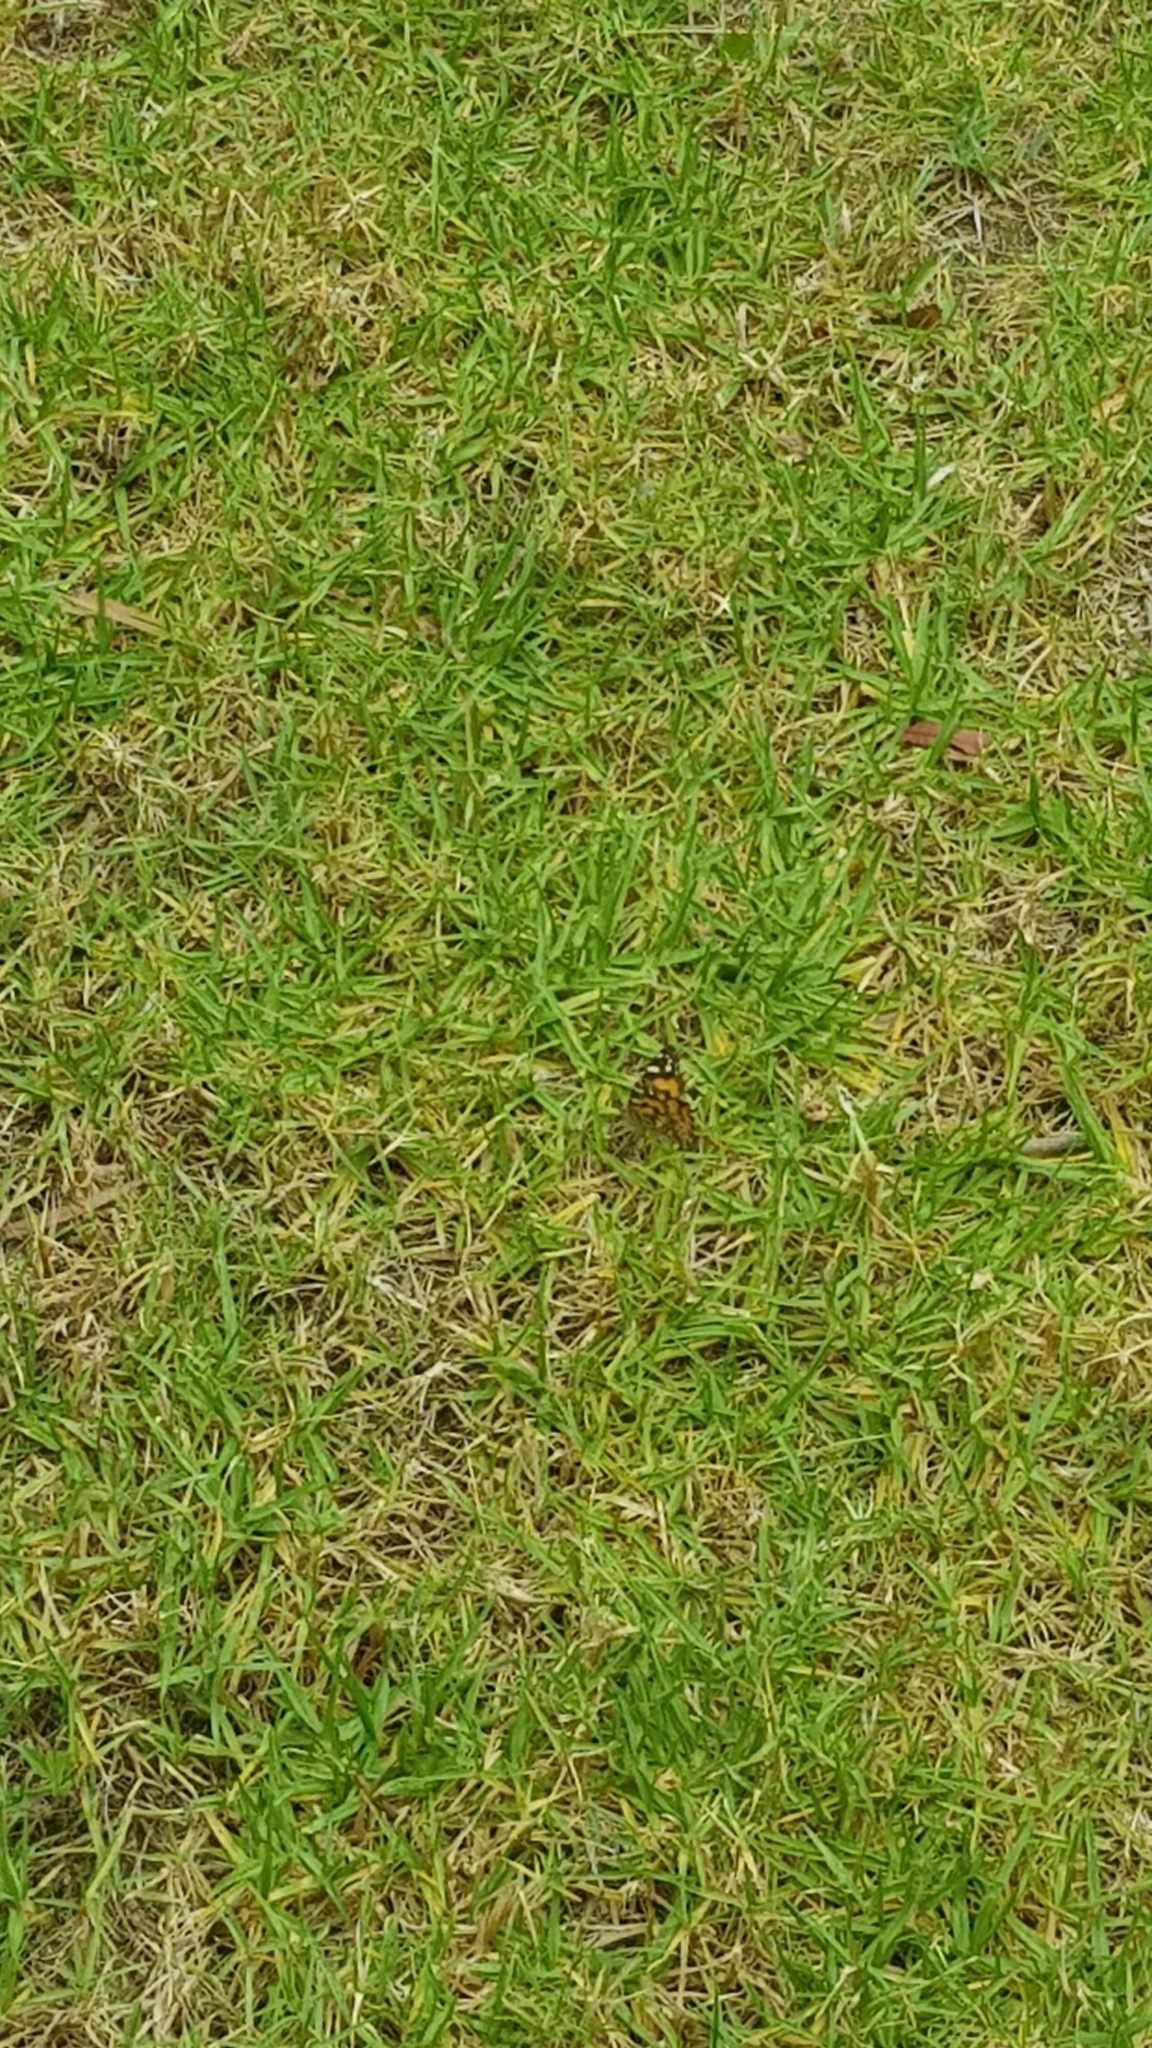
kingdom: Animalia
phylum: Arthropoda
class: Insecta
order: Lepidoptera
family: Nymphalidae
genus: Vanessa
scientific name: Vanessa kershawi
